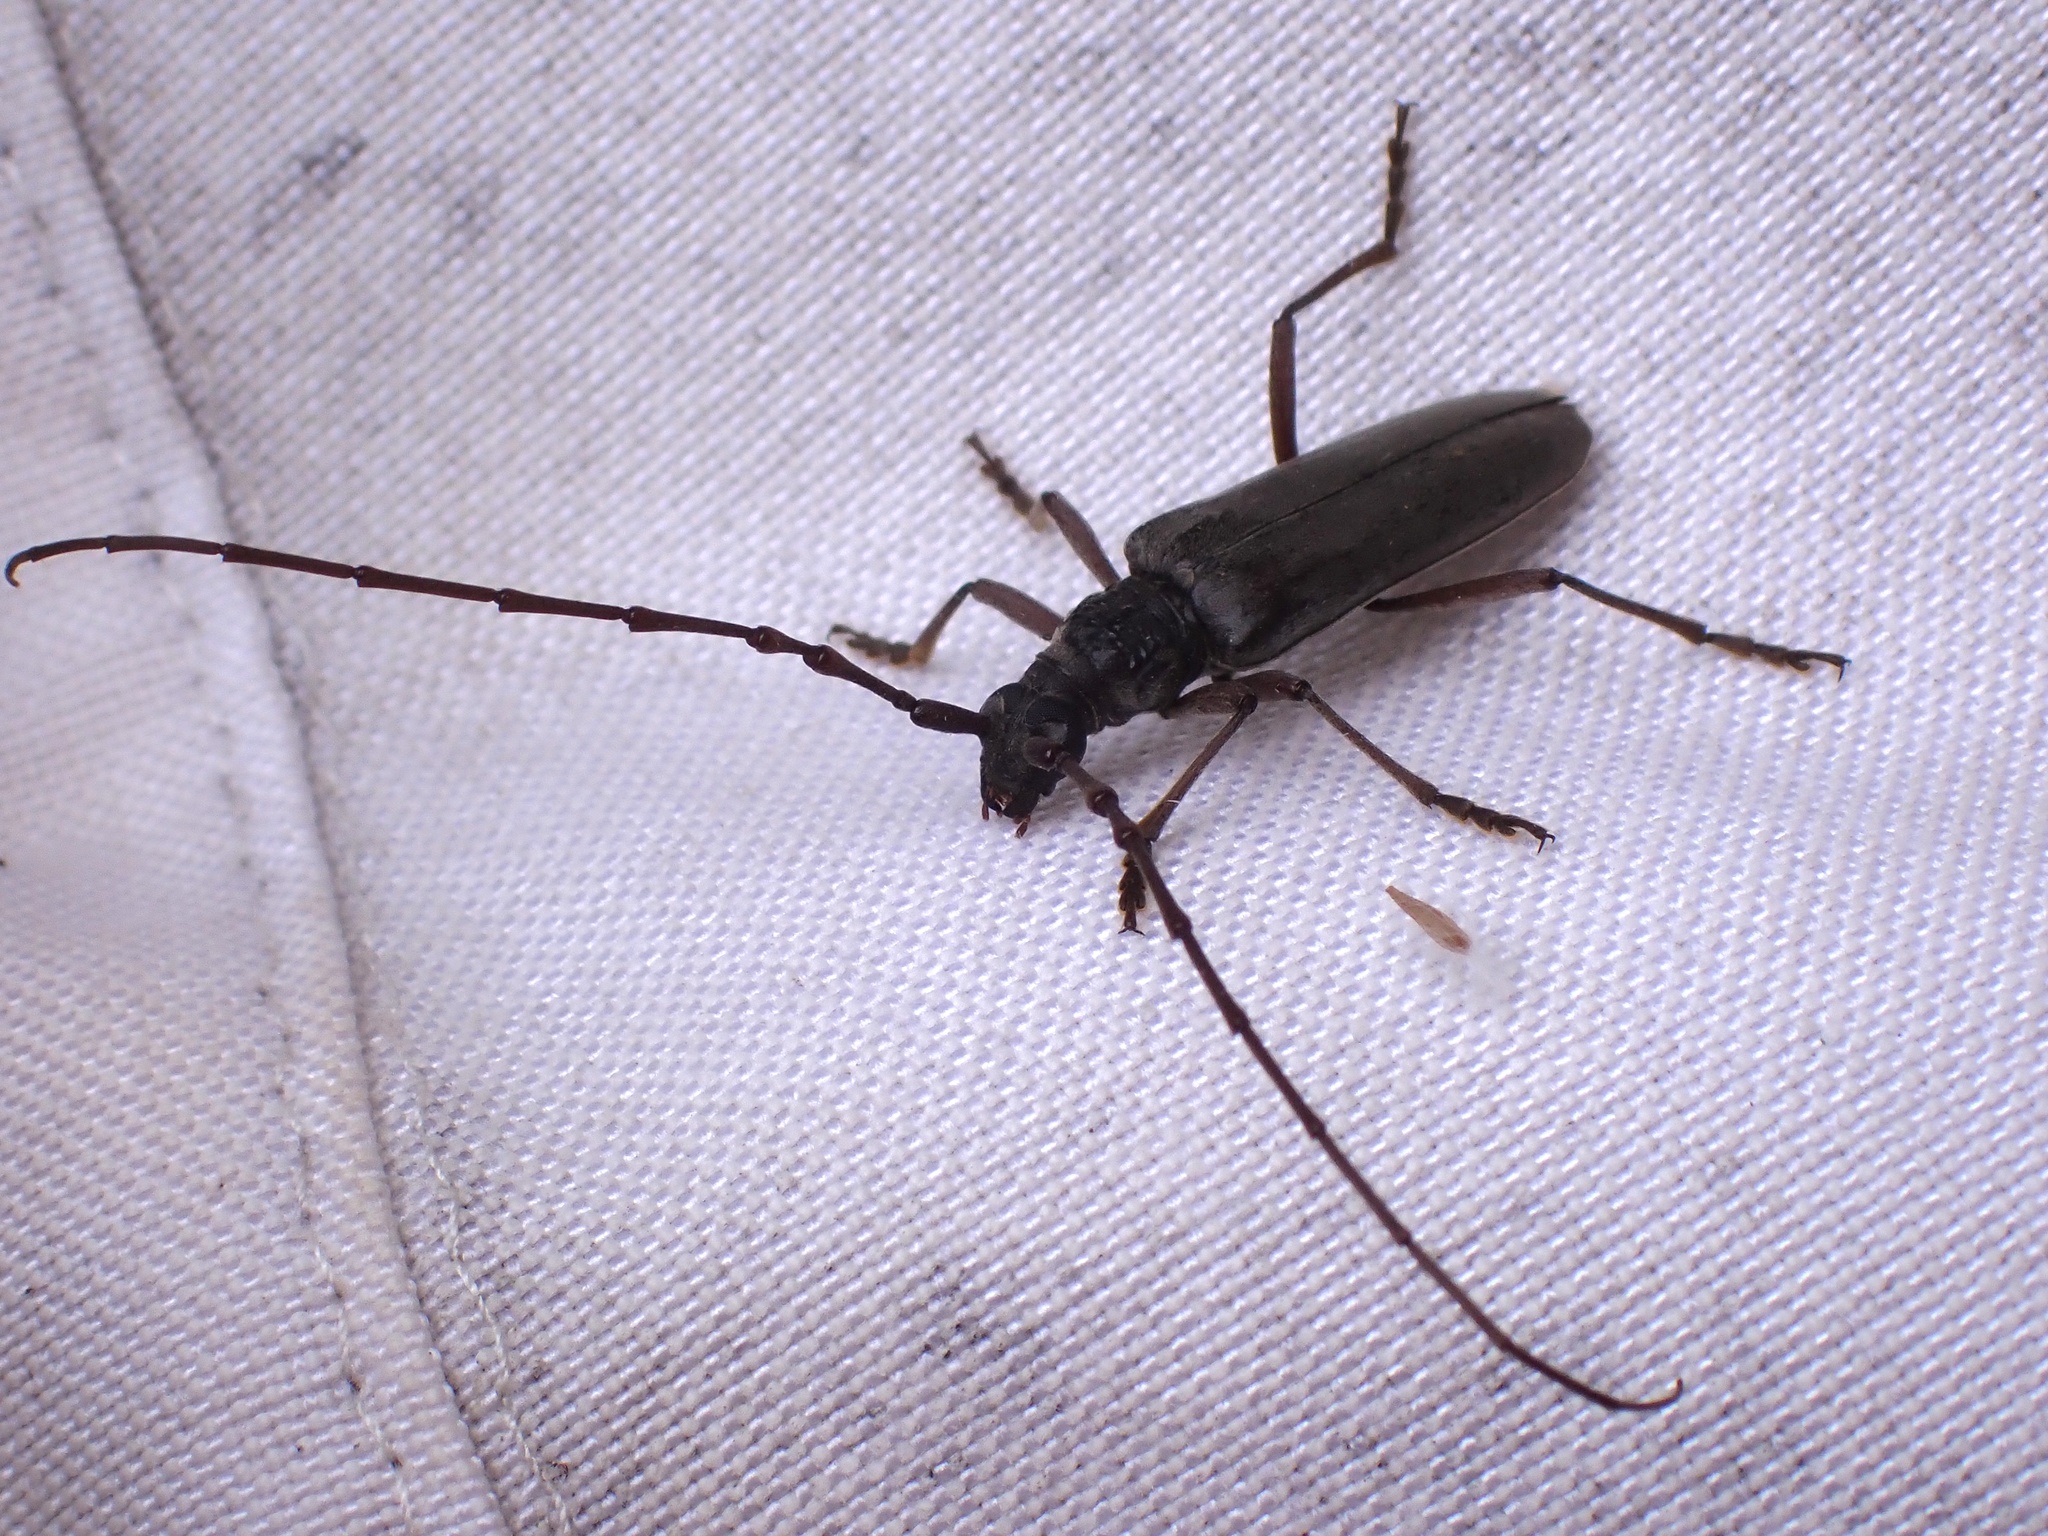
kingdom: Animalia
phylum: Arthropoda
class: Insecta
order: Coleoptera
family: Cerambycidae
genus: Derolus
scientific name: Derolus mauritanicus
